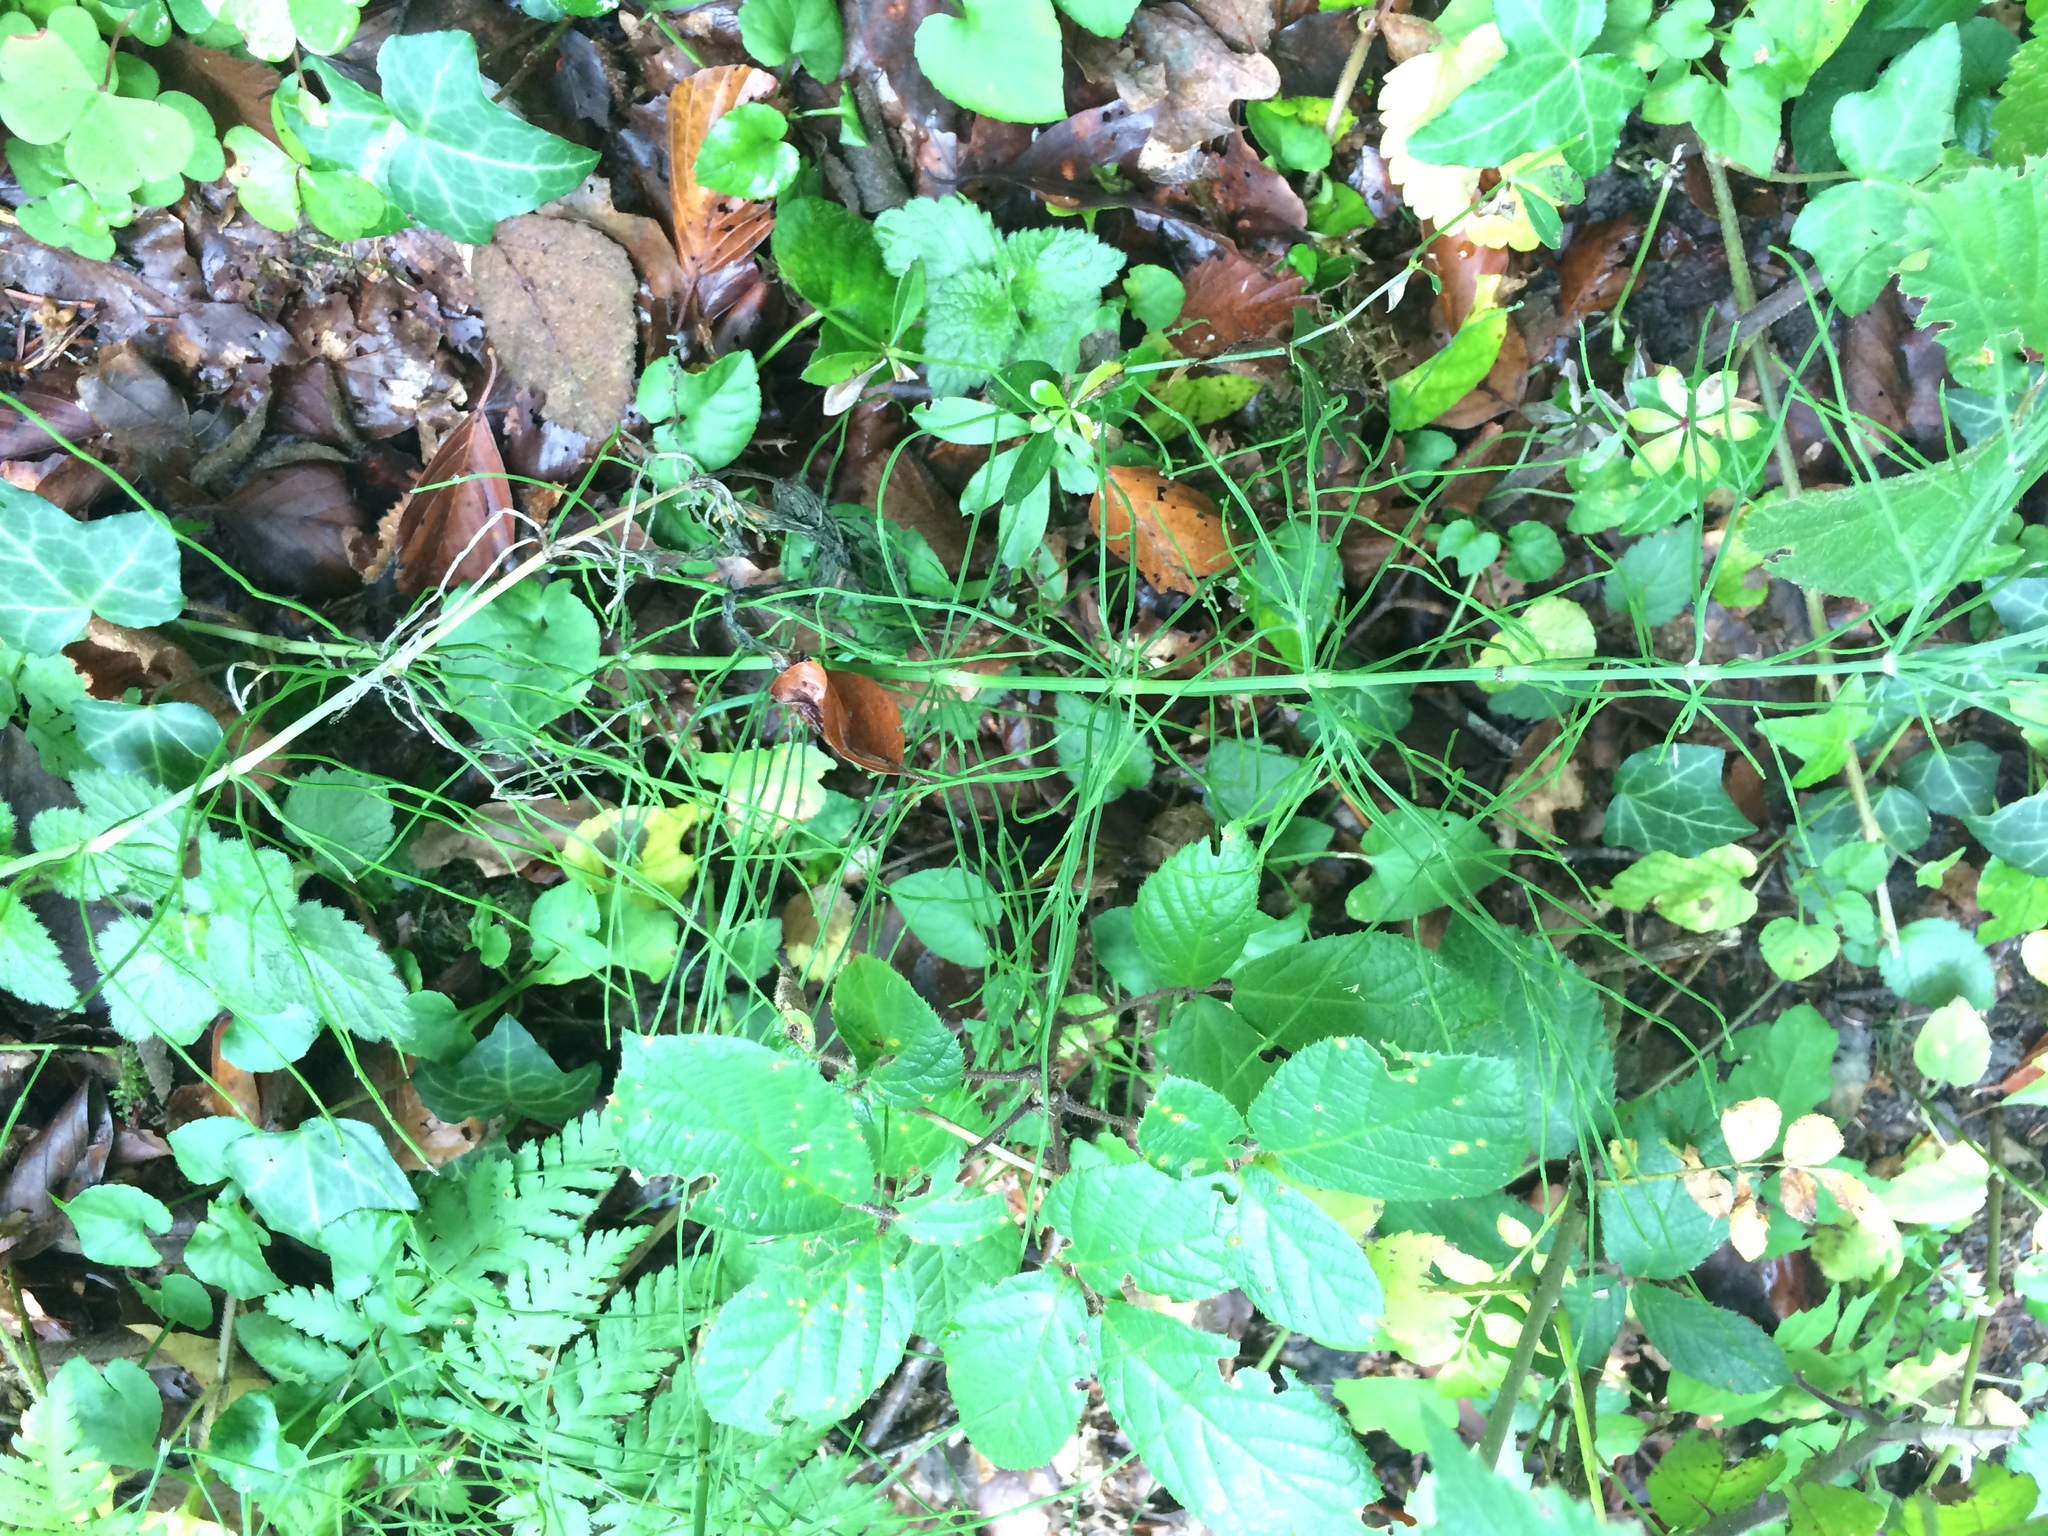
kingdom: Plantae
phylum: Tracheophyta
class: Polypodiopsida
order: Equisetales
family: Equisetaceae
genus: Equisetum
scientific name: Equisetum arvense
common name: Field horsetail
